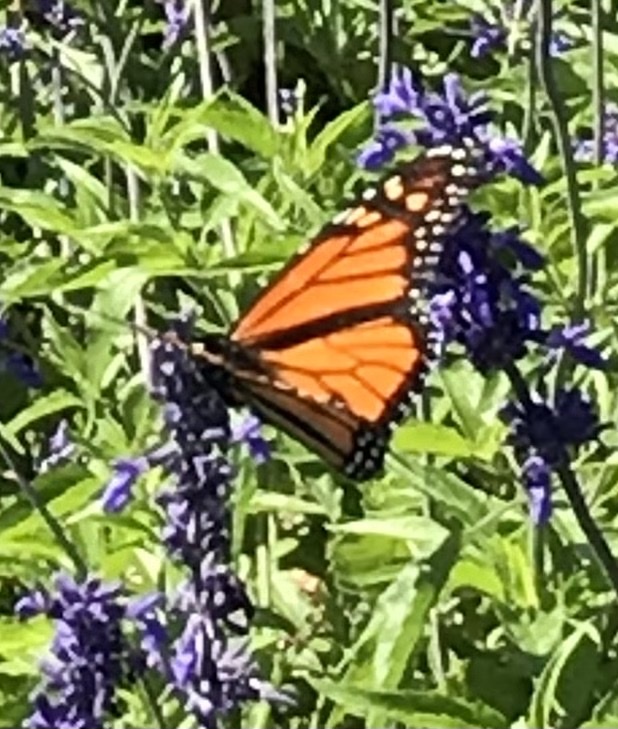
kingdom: Animalia
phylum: Arthropoda
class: Insecta
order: Lepidoptera
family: Nymphalidae
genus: Danaus
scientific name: Danaus plexippus
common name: Monarch
